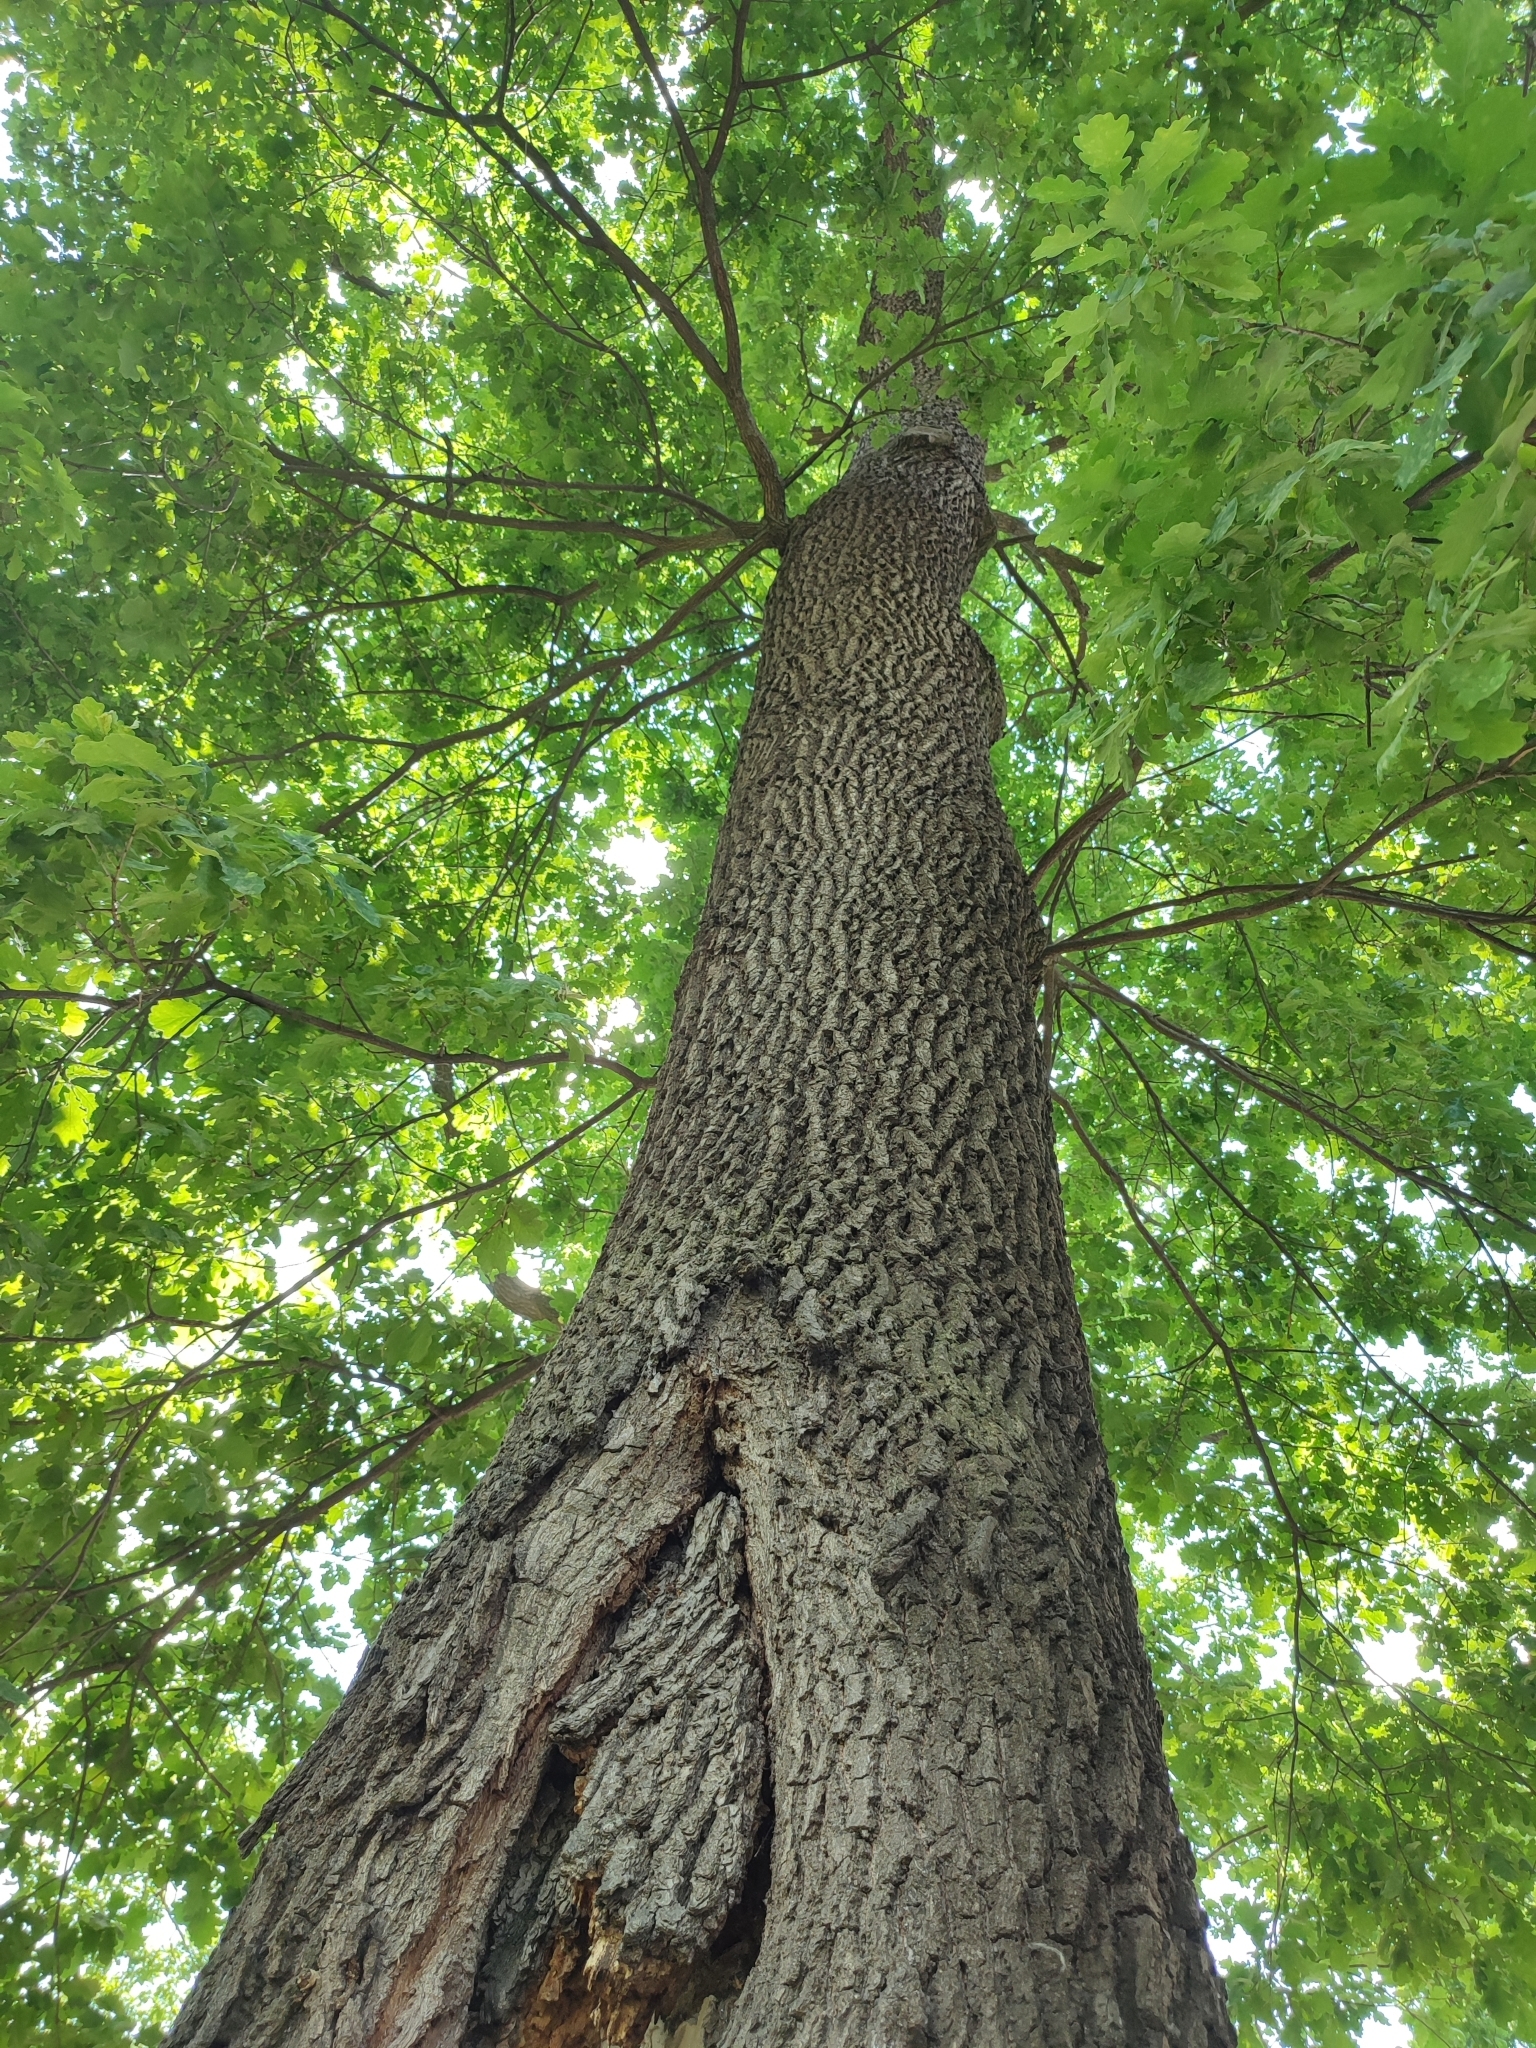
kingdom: Plantae
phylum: Tracheophyta
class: Magnoliopsida
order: Fagales
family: Fagaceae
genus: Quercus
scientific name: Quercus robur
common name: Pedunculate oak
